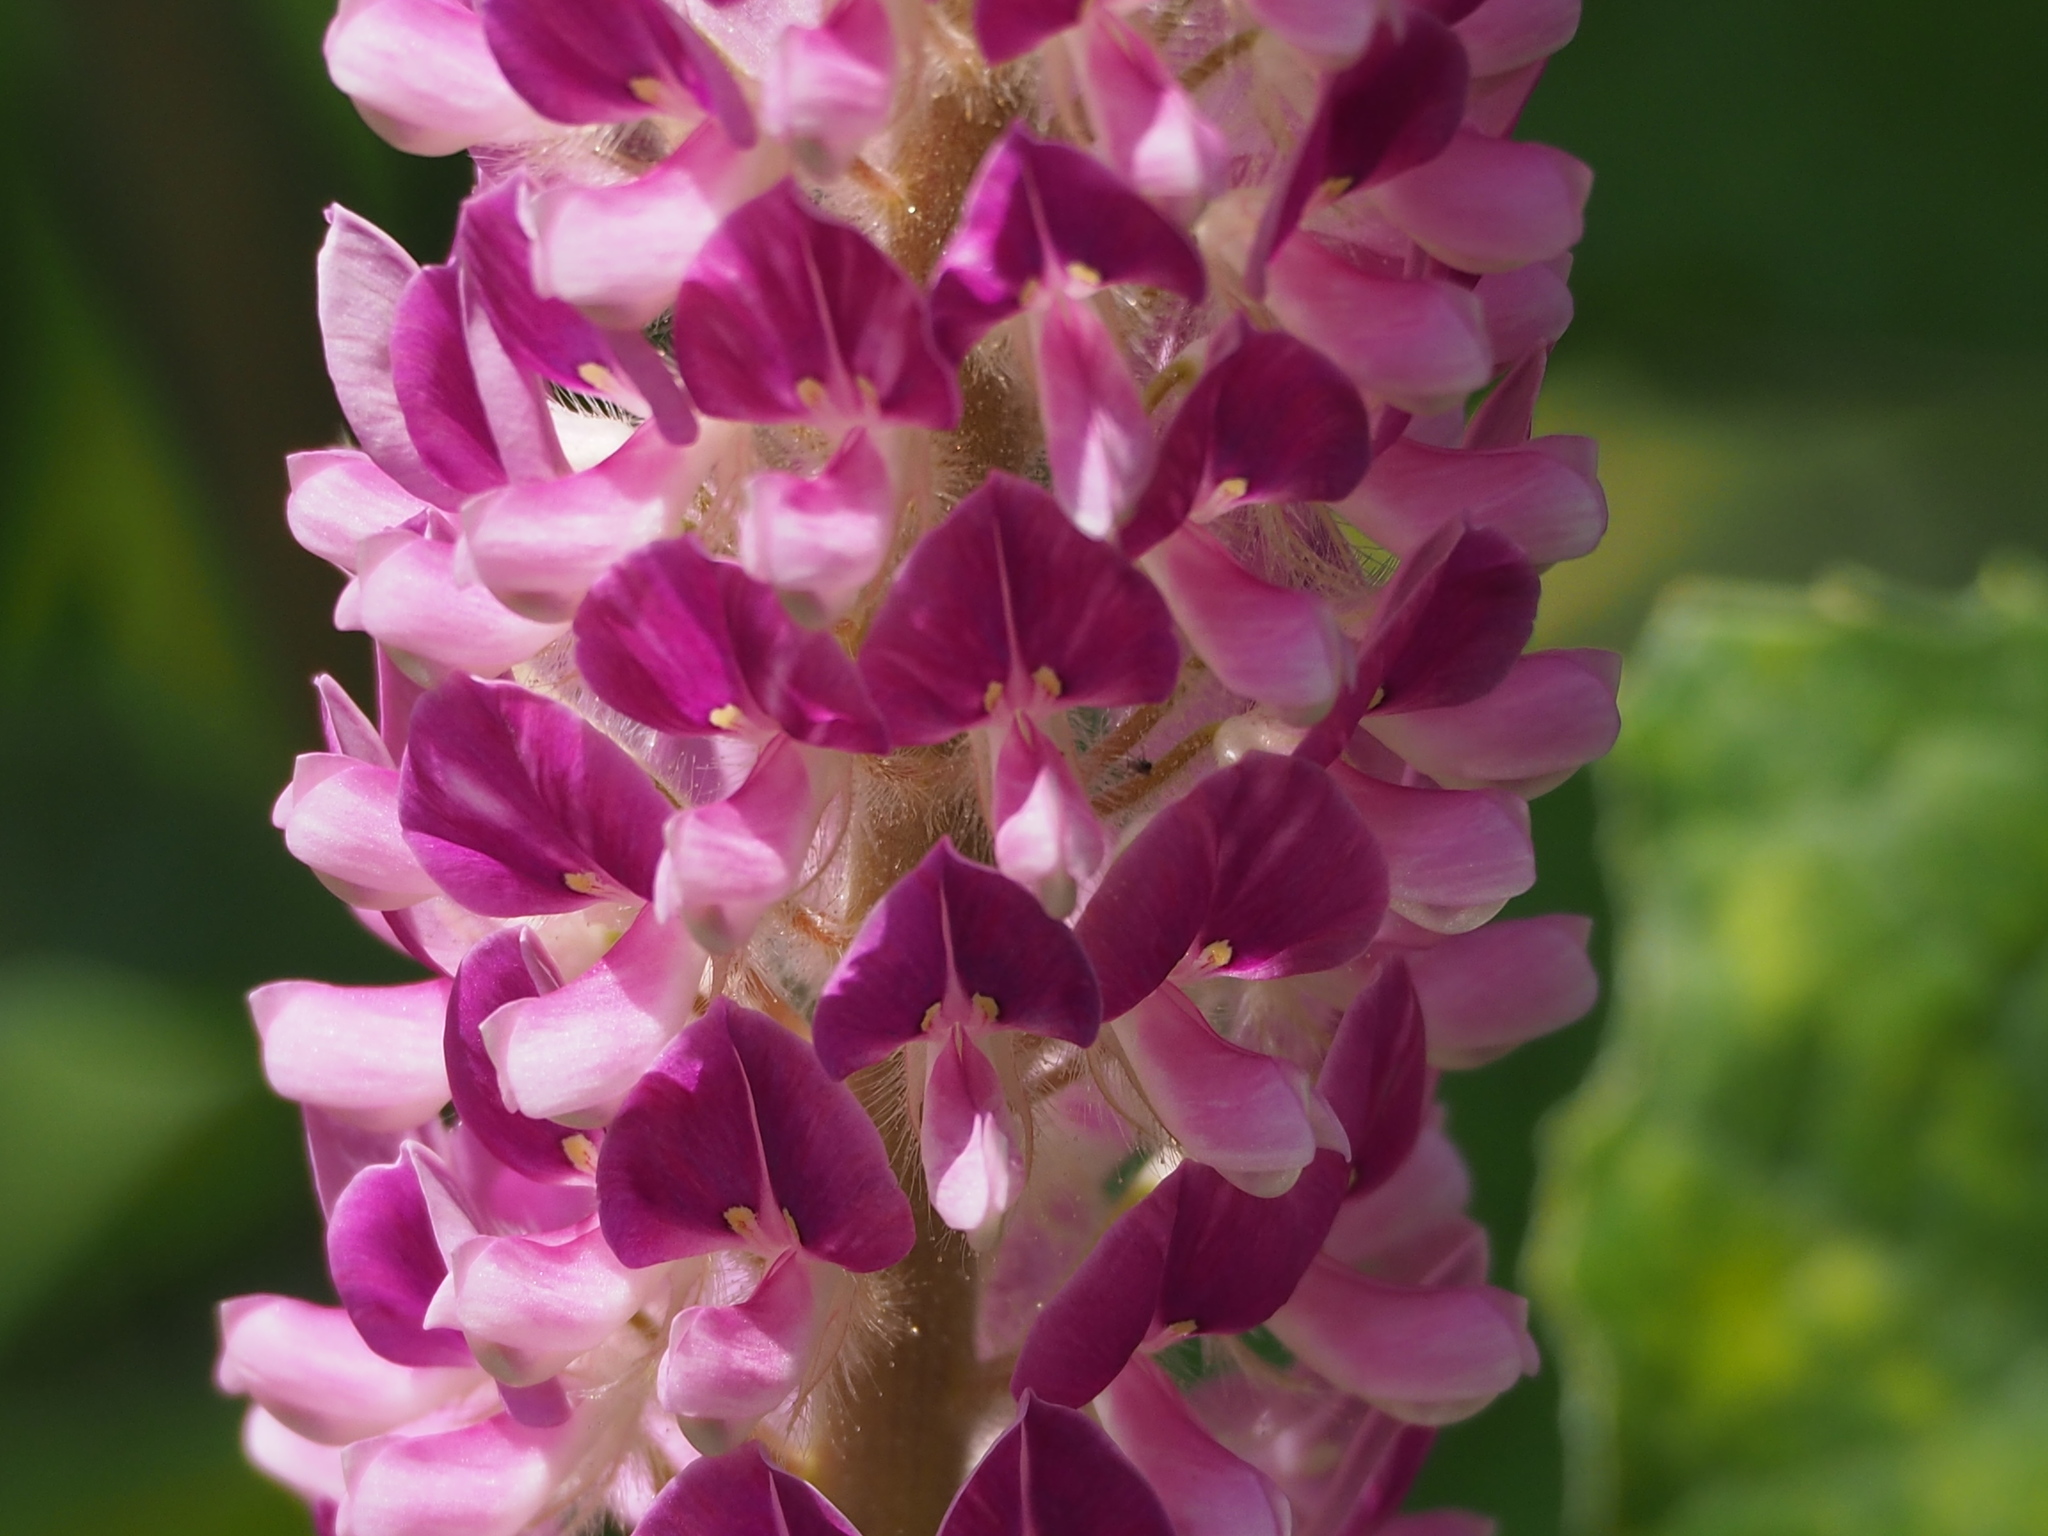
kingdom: Plantae
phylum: Tracheophyta
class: Magnoliopsida
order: Fabales
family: Fabaceae
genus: Uraria
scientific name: Uraria crinita
